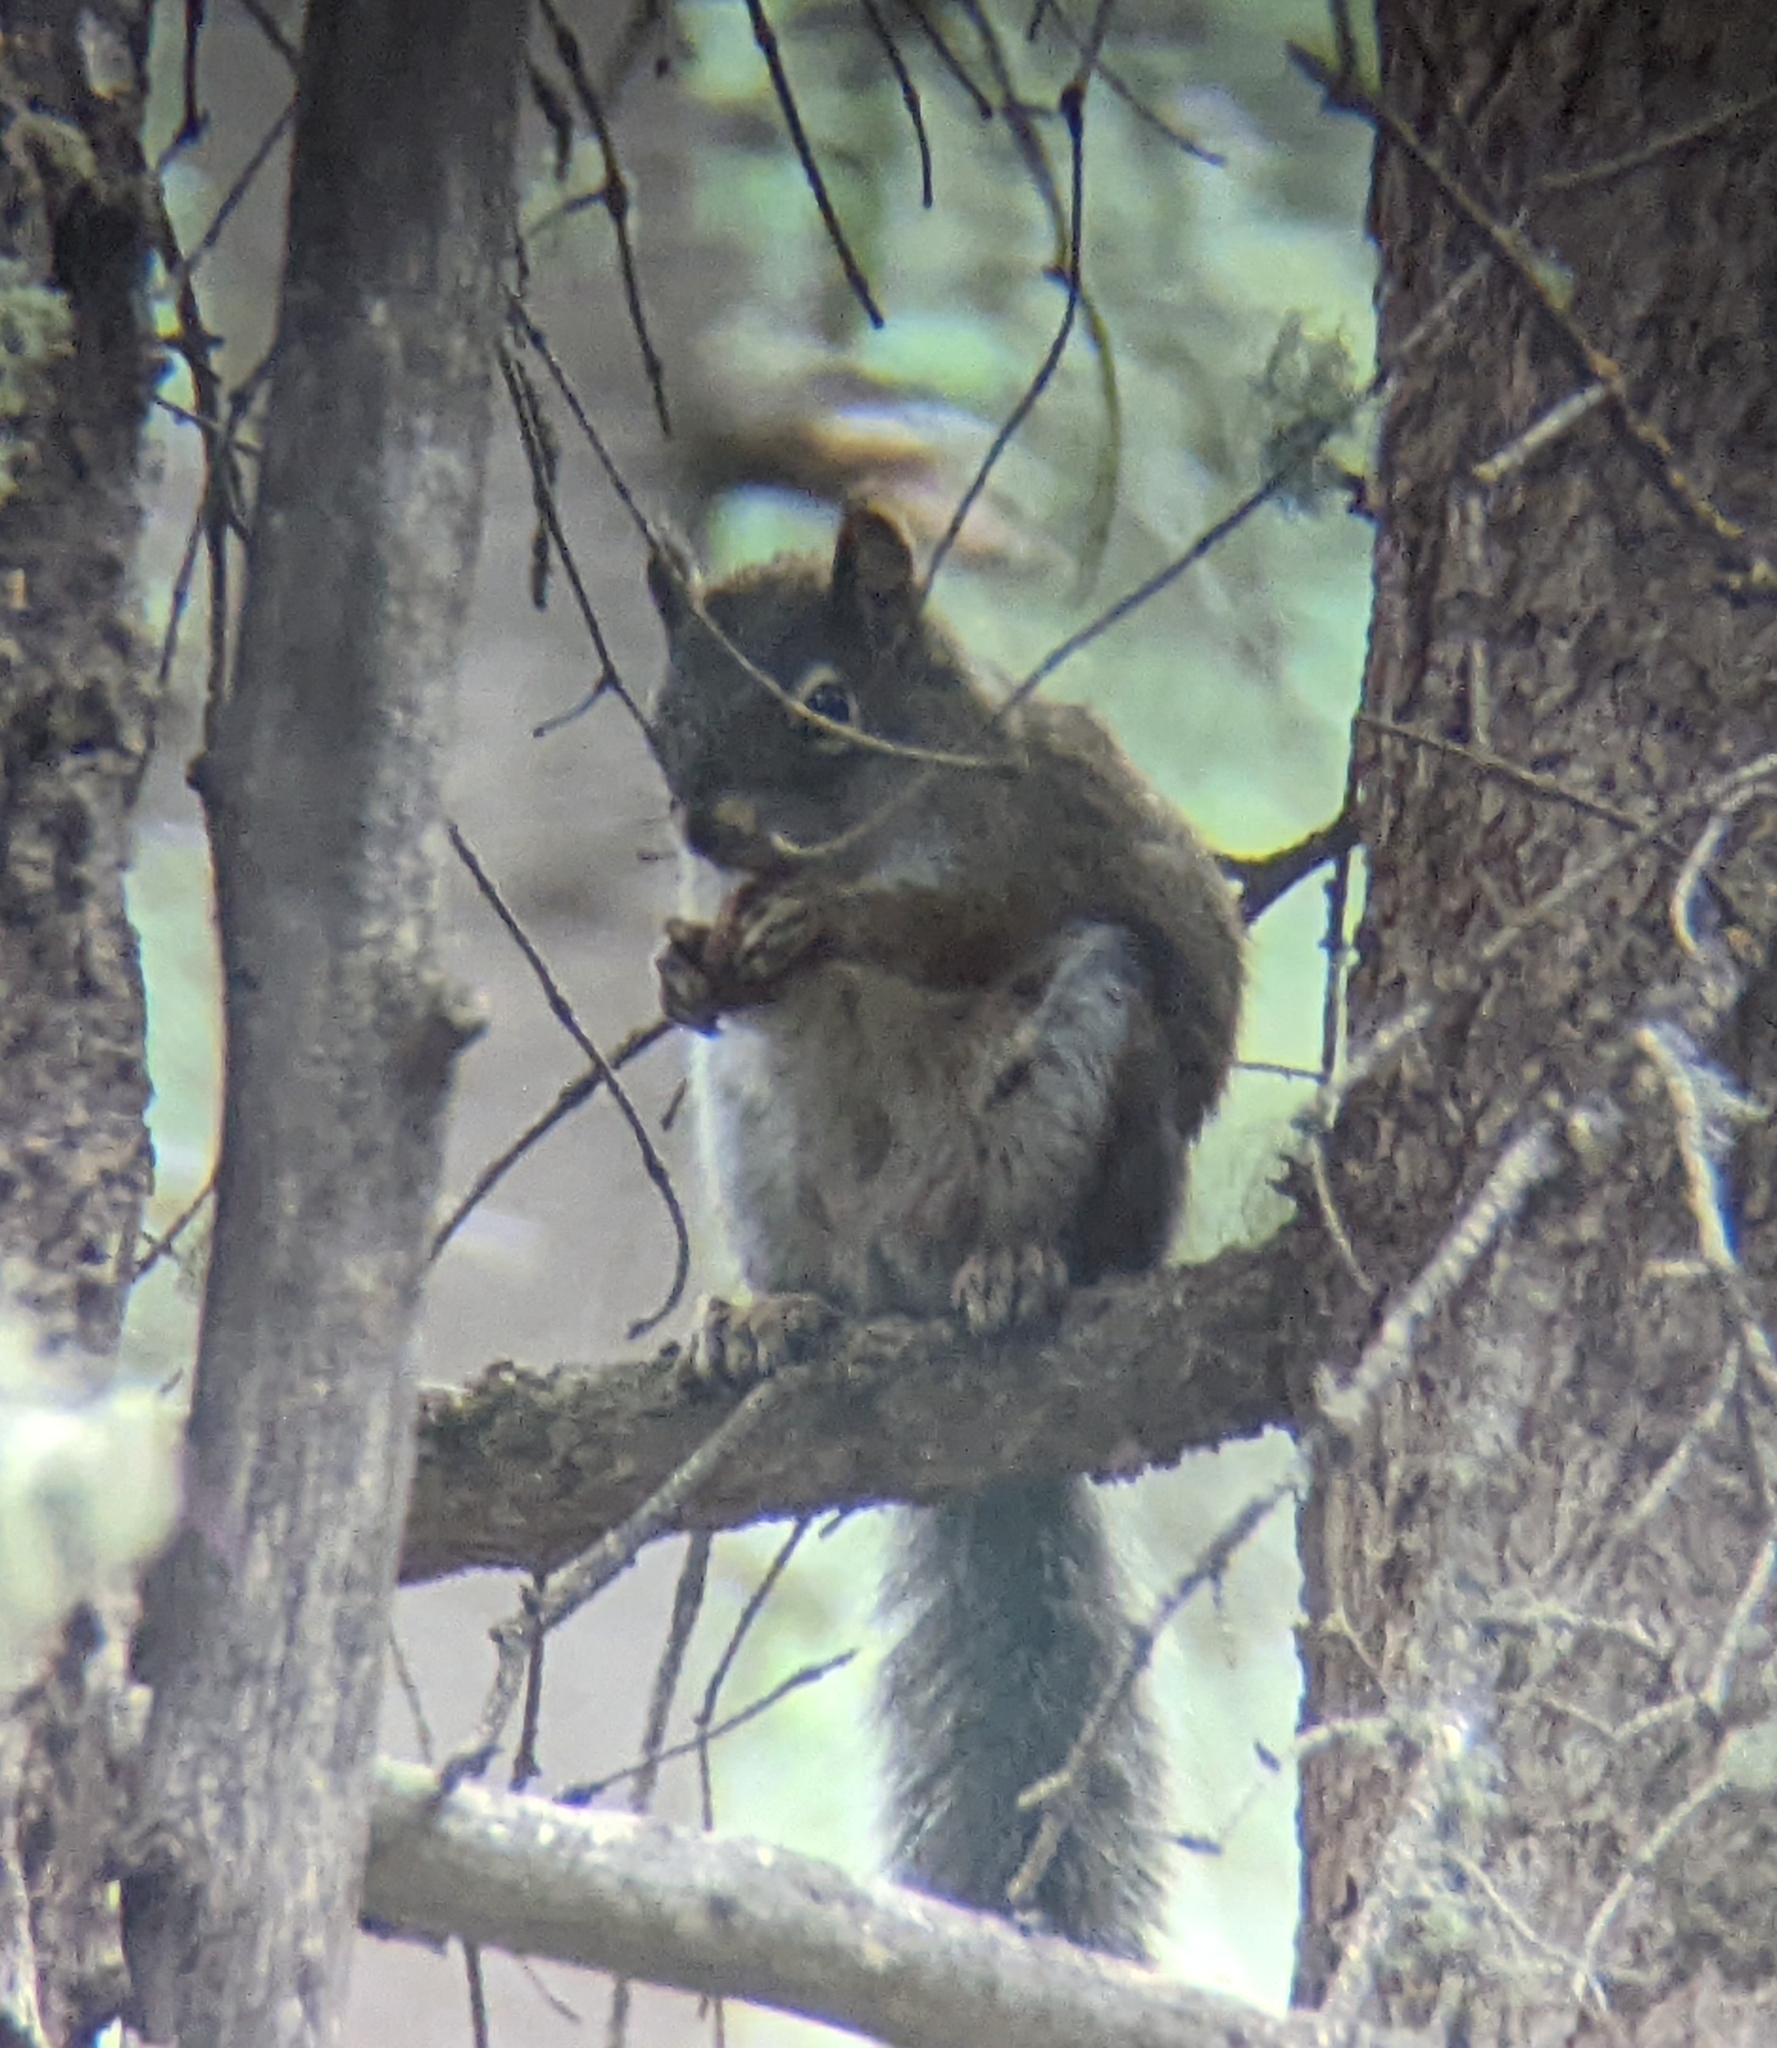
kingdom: Animalia
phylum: Chordata
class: Mammalia
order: Rodentia
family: Sciuridae
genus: Tamiasciurus
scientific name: Tamiasciurus hudsonicus
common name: Red squirrel
